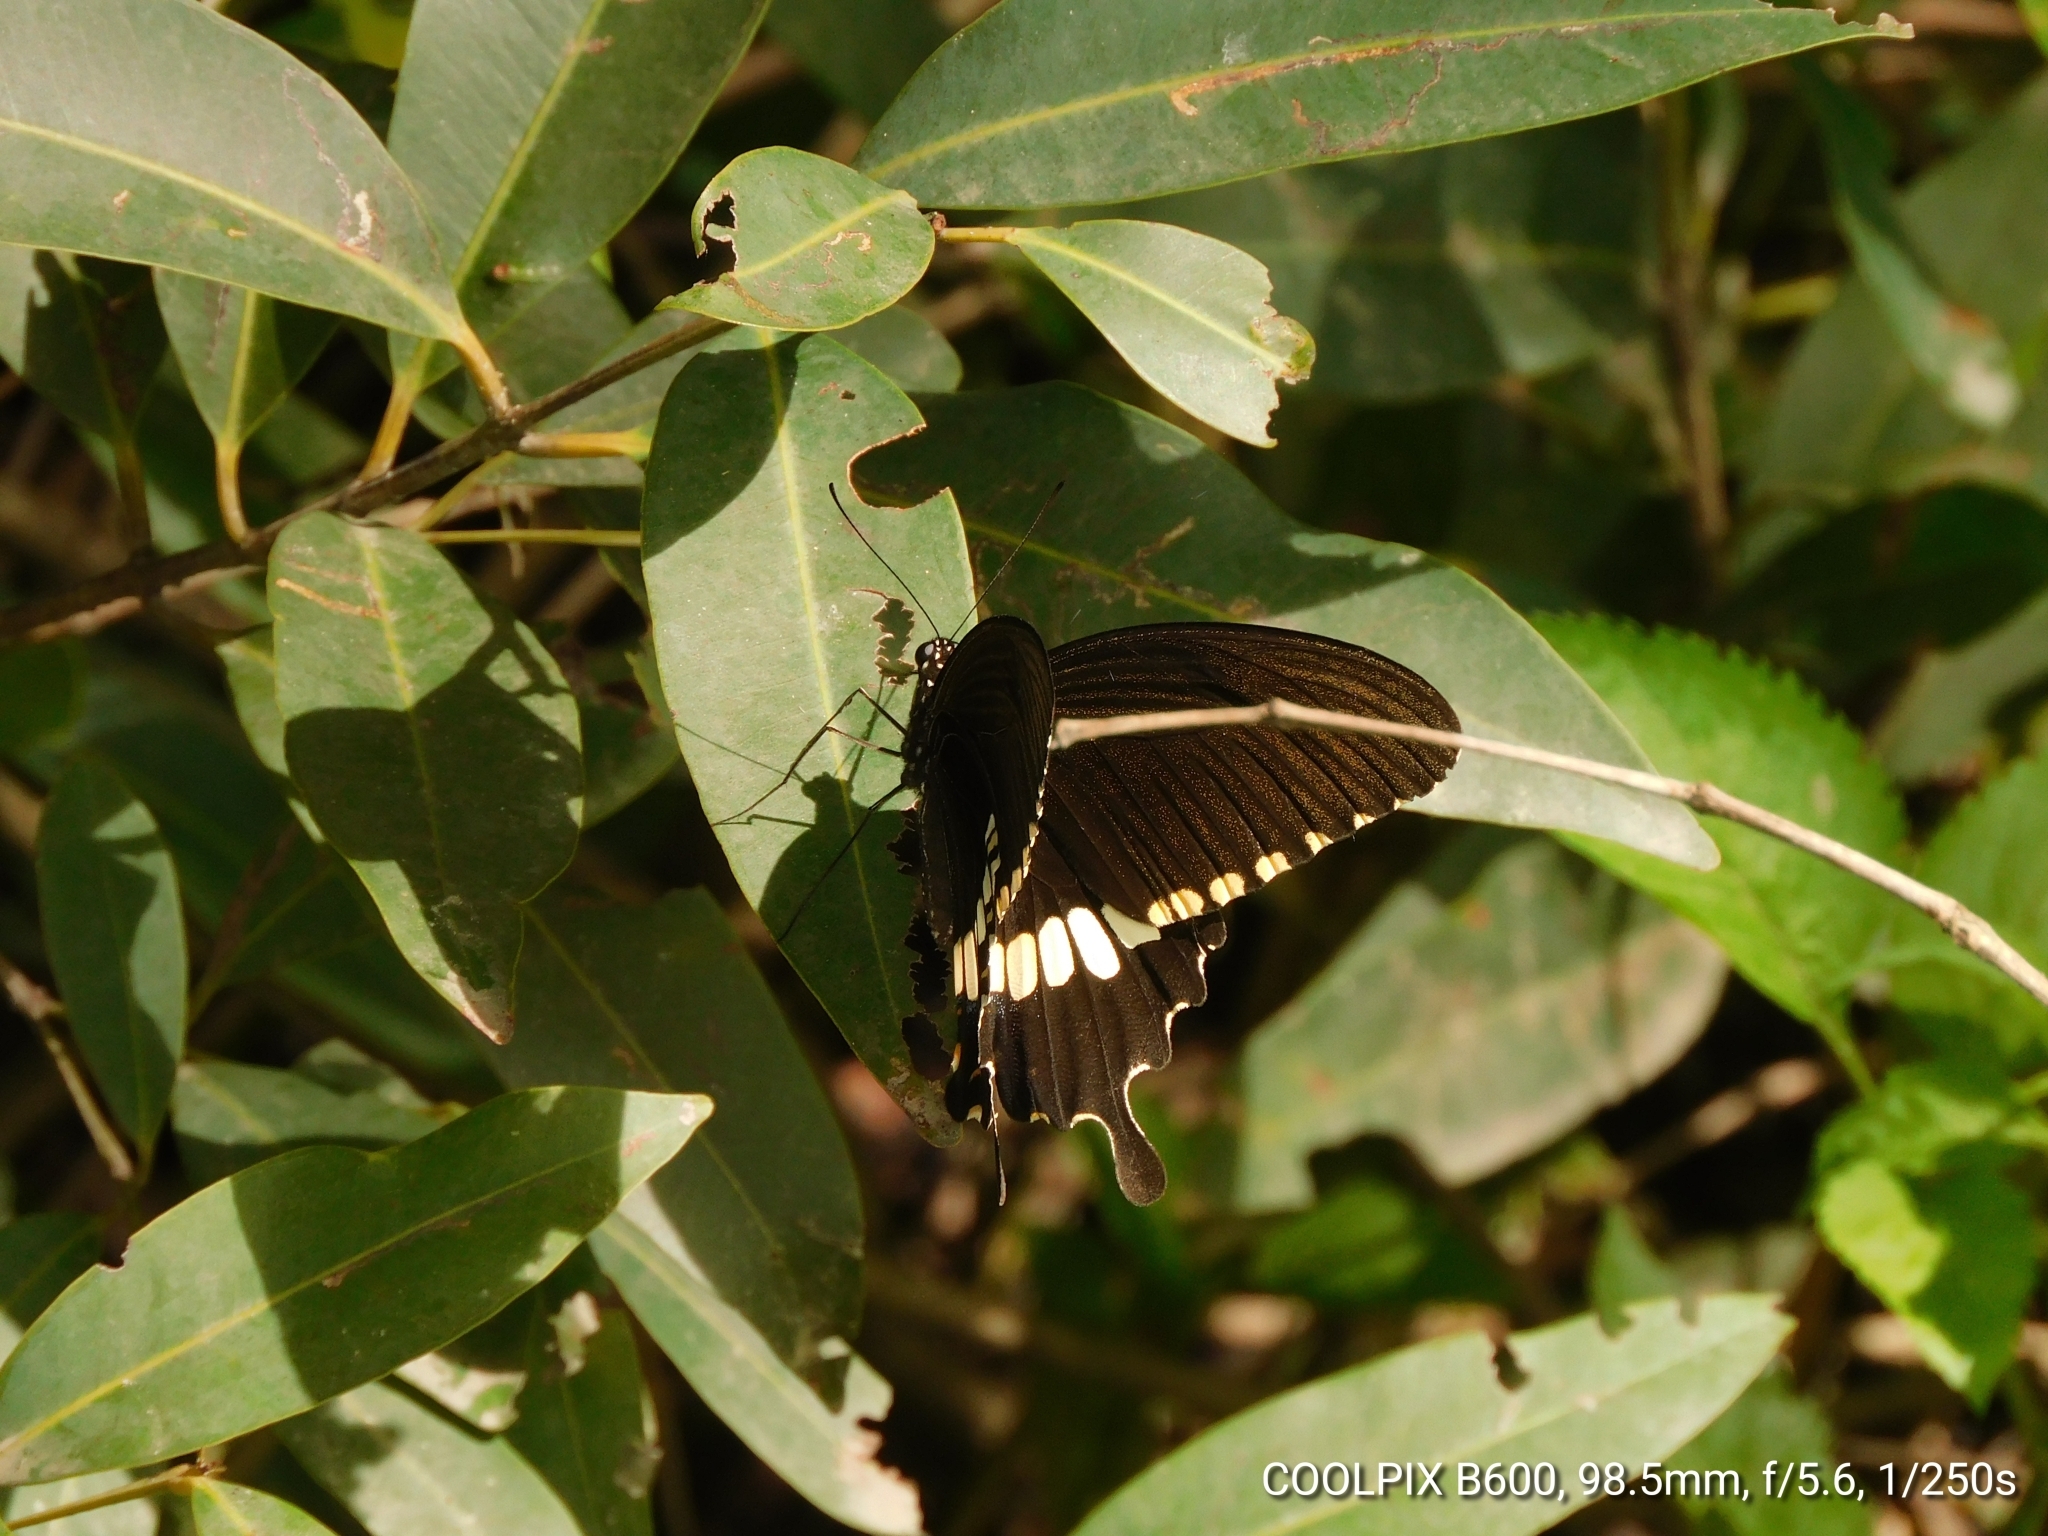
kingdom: Animalia
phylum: Arthropoda
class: Insecta
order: Lepidoptera
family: Papilionidae
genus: Papilio
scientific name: Papilio polytes
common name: Common mormon
